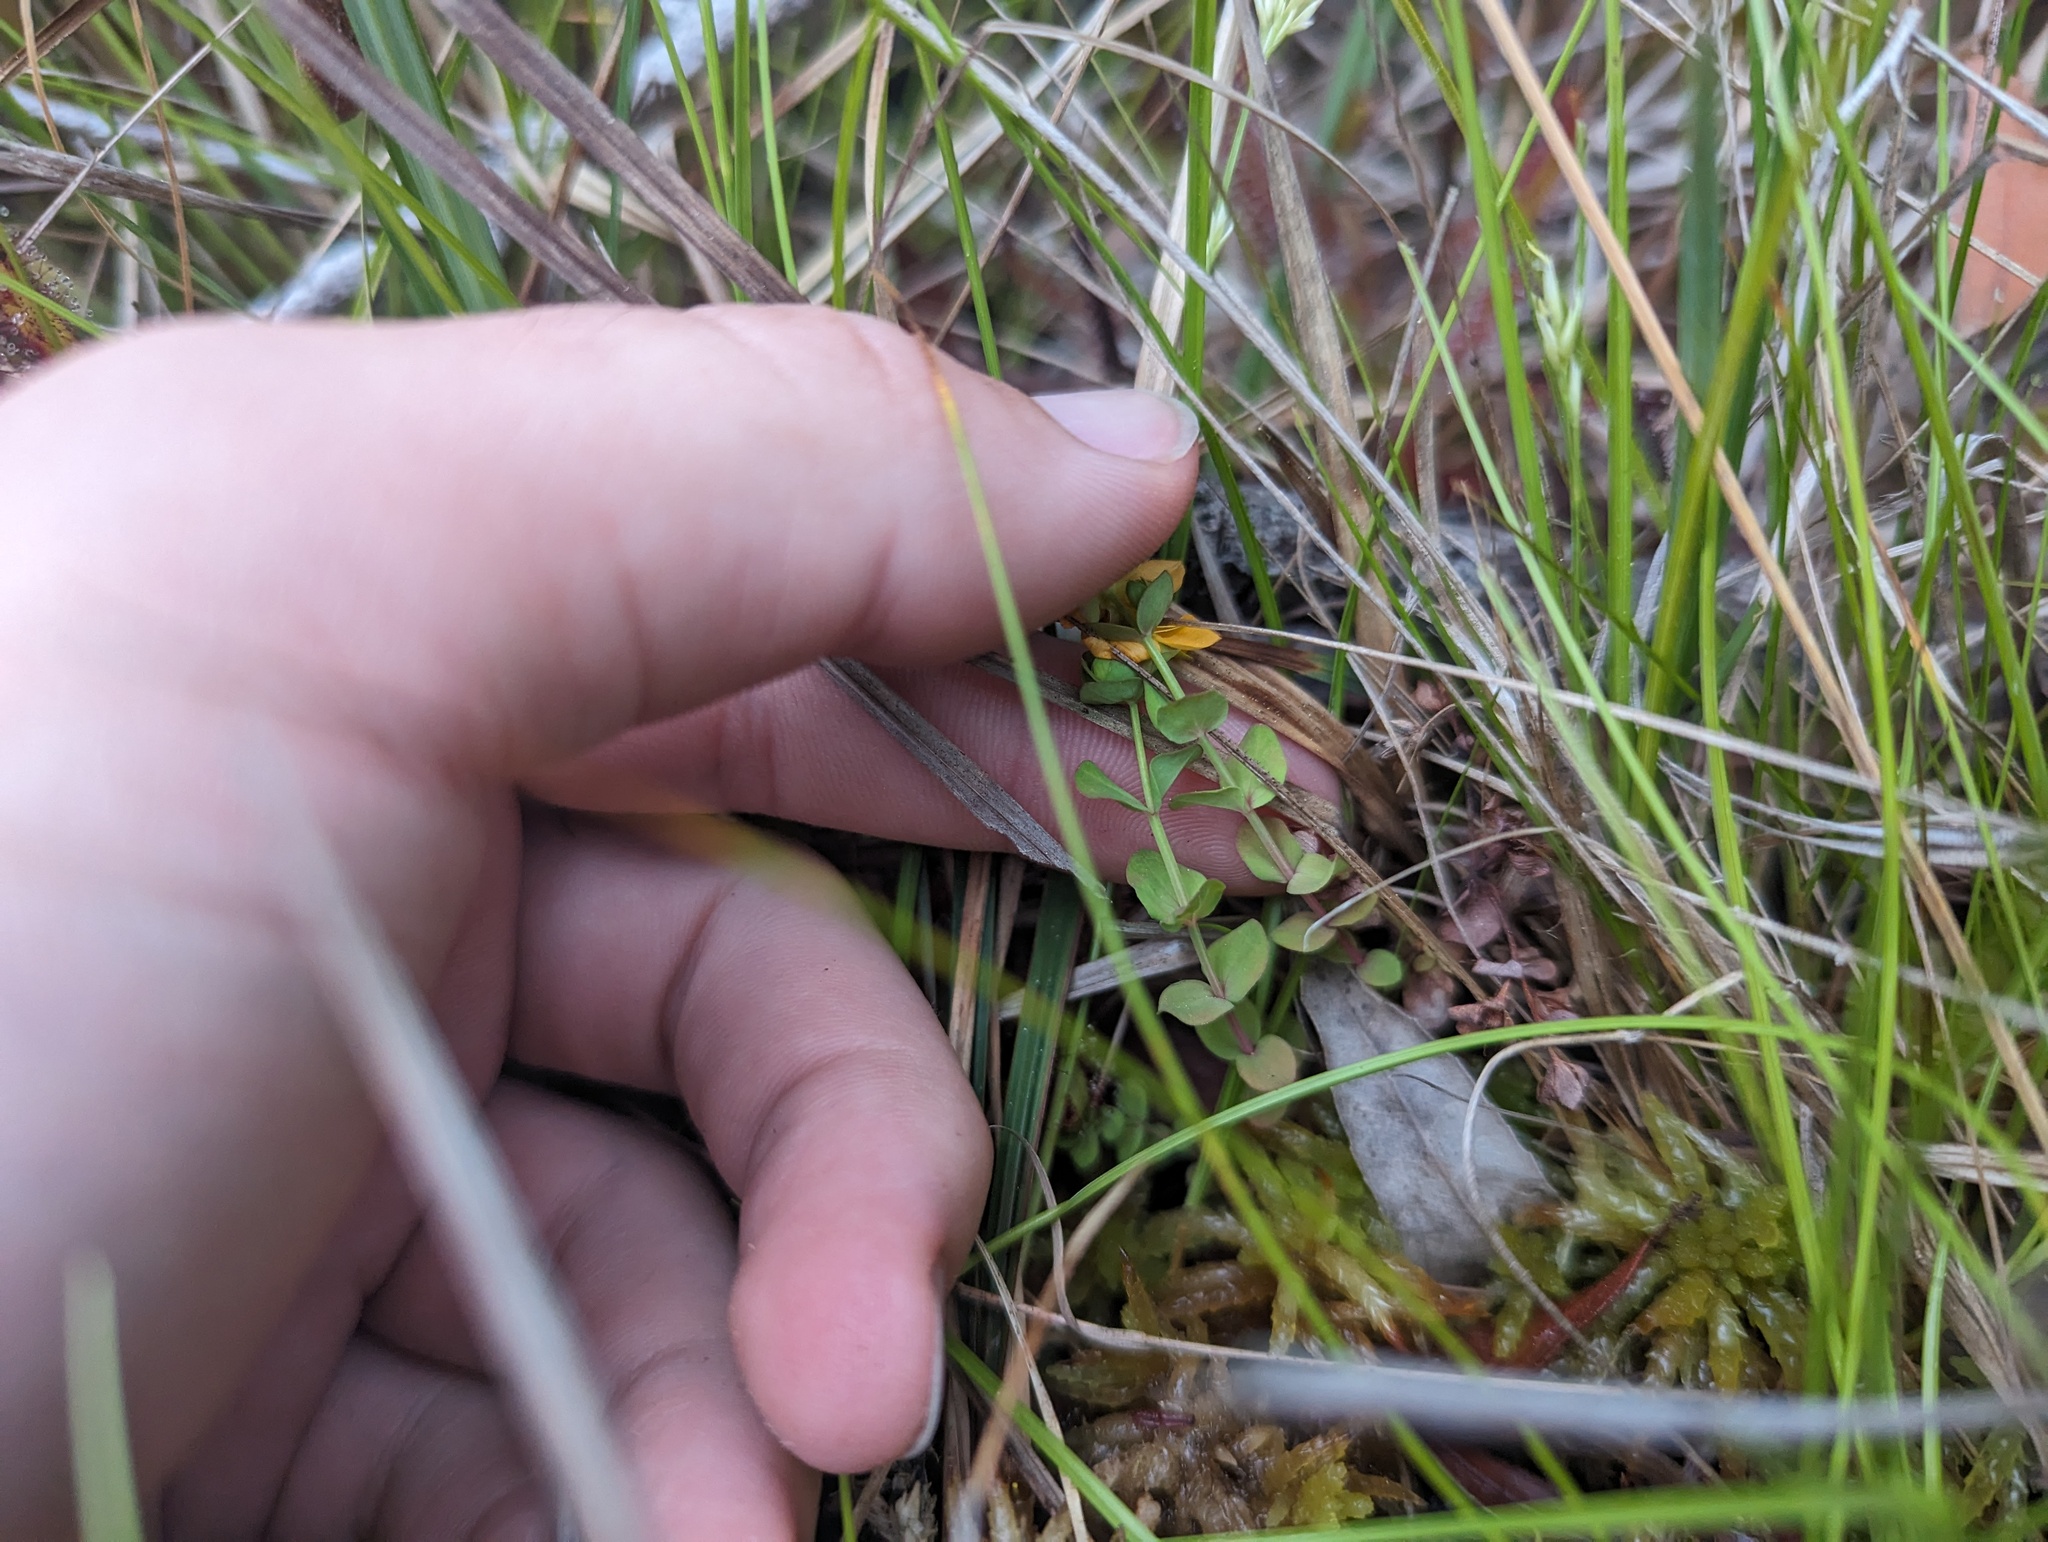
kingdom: Plantae
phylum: Tracheophyta
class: Magnoliopsida
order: Malpighiales
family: Hypericaceae
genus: Hypericum
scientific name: Hypericum anagalloides
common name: Bog st. john's-wort
